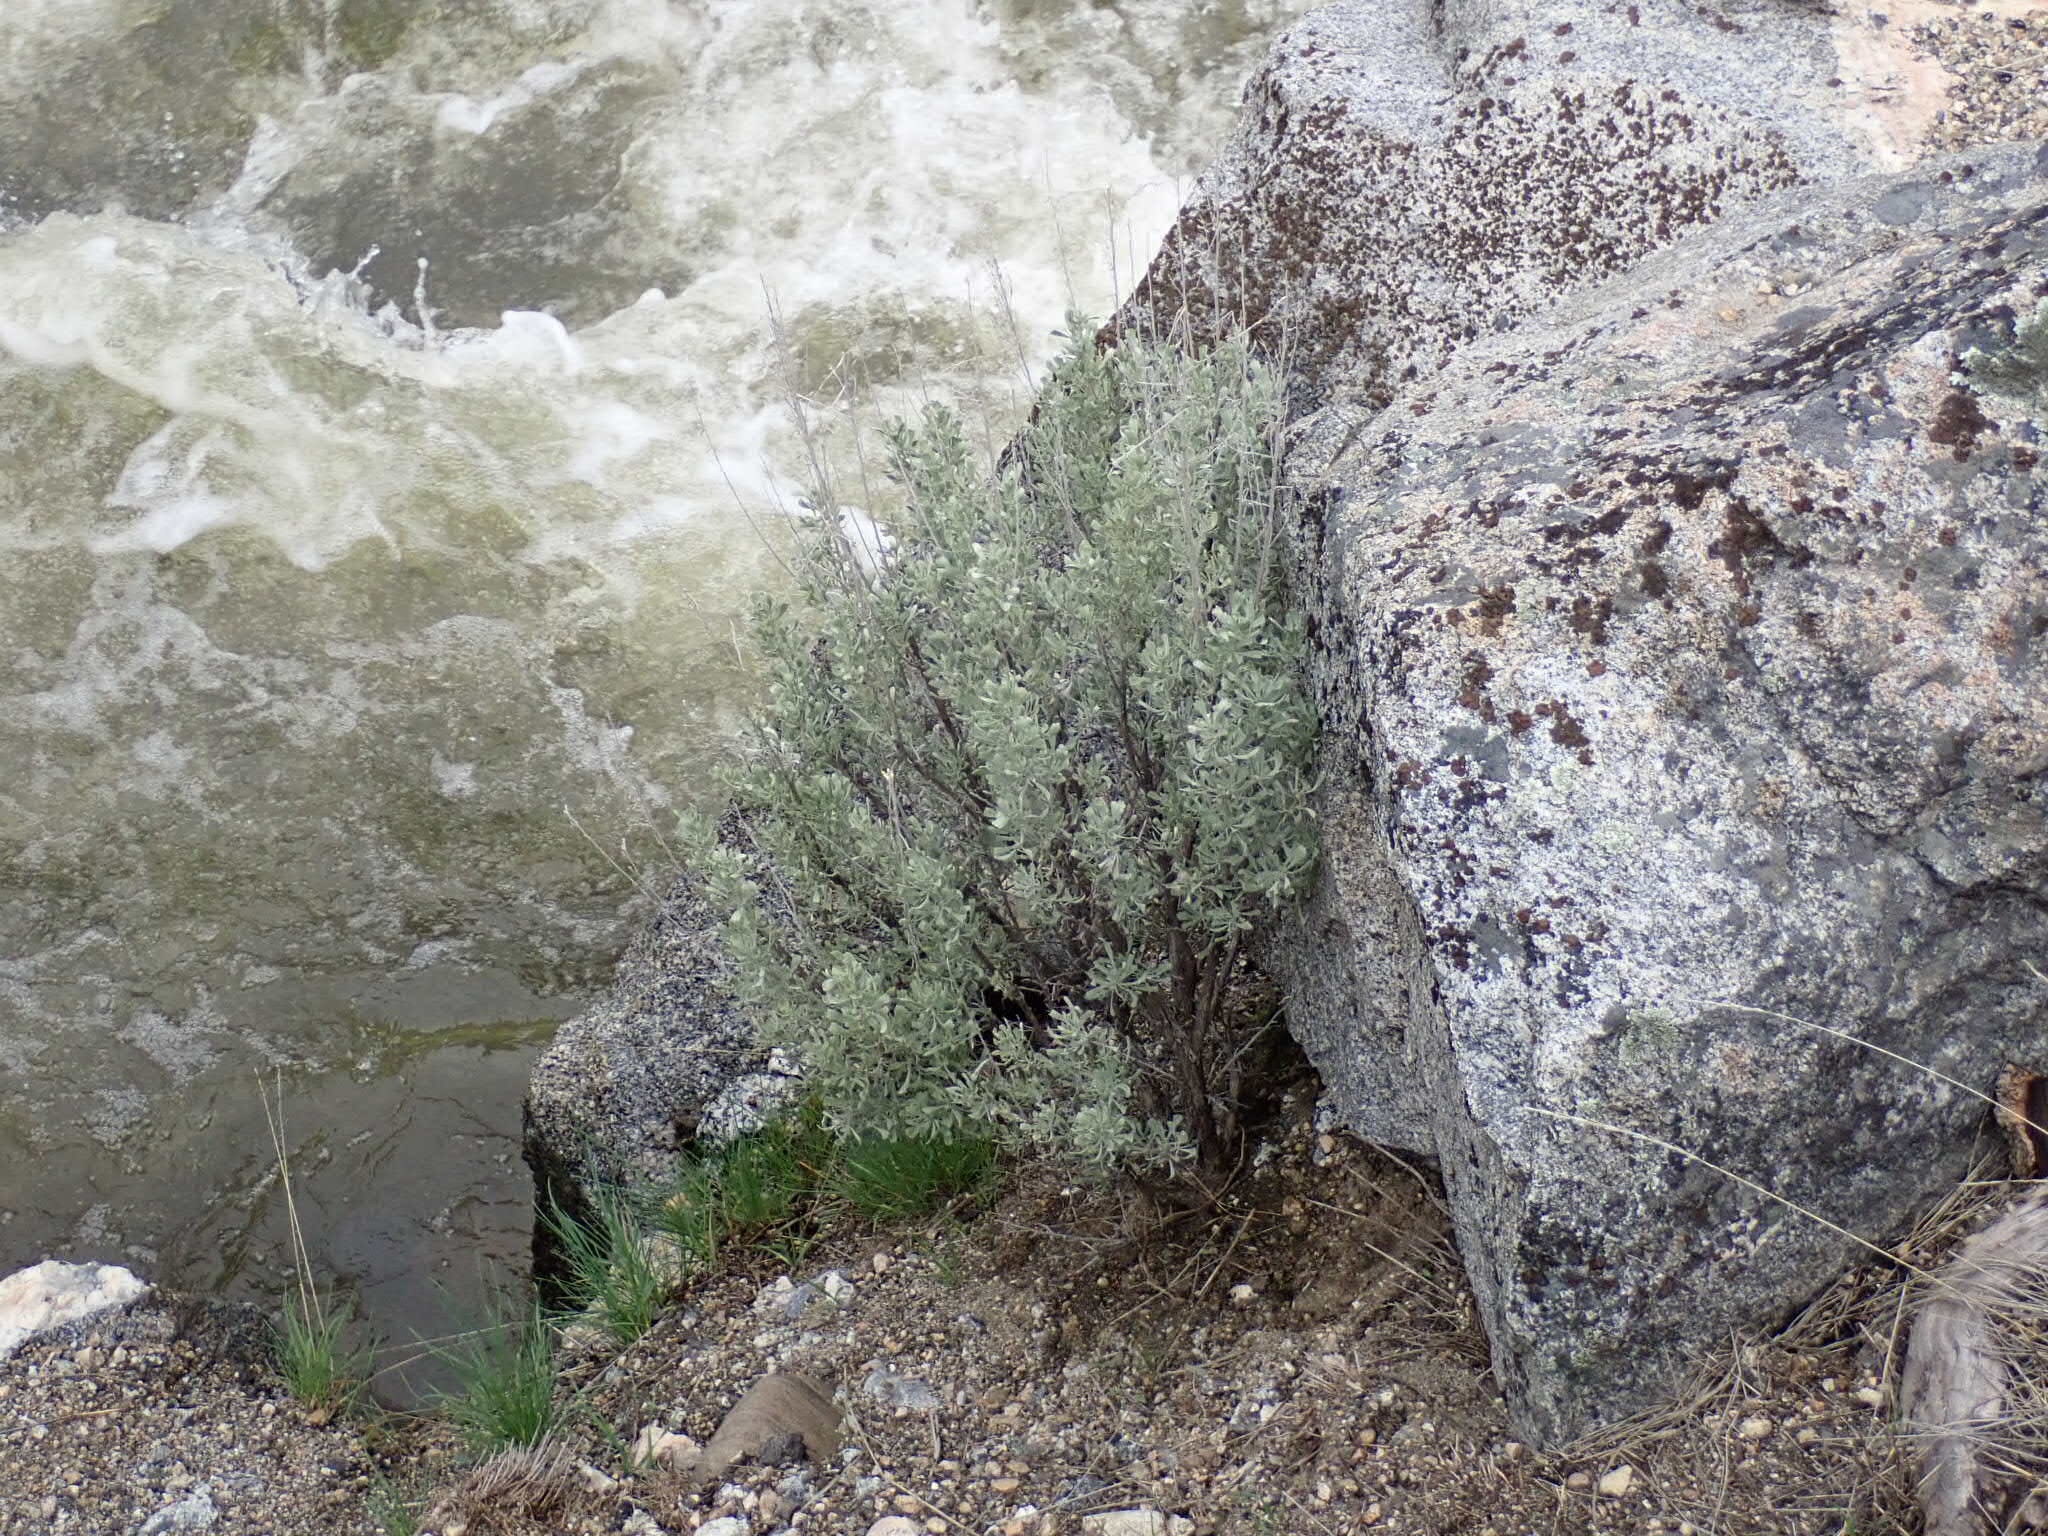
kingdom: Plantae
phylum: Tracheophyta
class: Magnoliopsida
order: Asterales
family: Asteraceae
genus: Artemisia
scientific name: Artemisia tridentata
